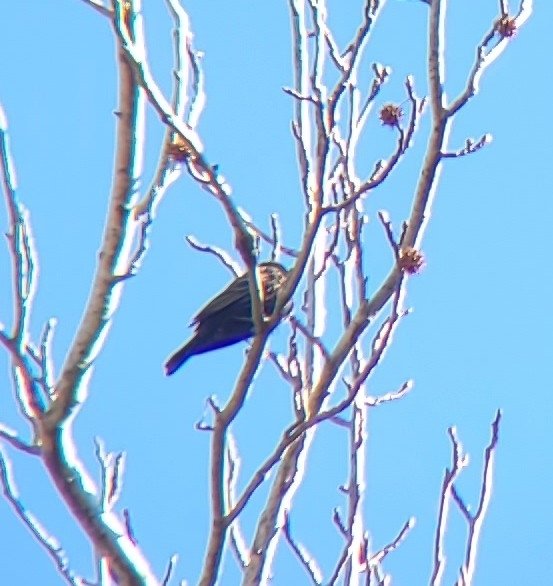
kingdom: Animalia
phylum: Chordata
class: Aves
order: Passeriformes
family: Icteridae
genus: Agelaius
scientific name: Agelaius phoeniceus
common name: Red-winged blackbird
